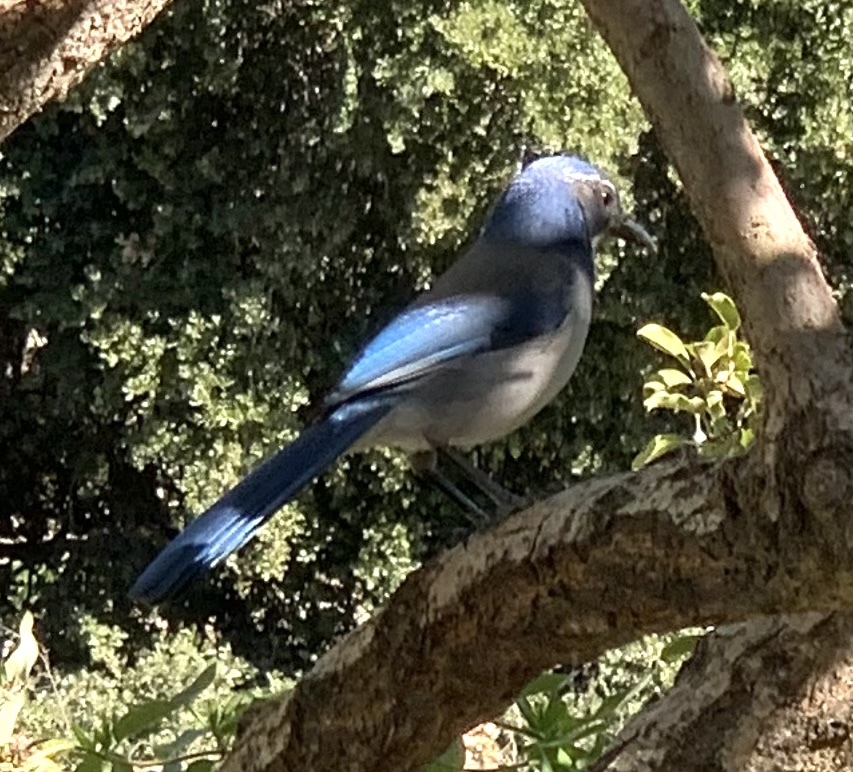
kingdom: Animalia
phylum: Chordata
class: Aves
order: Passeriformes
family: Corvidae
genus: Aphelocoma
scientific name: Aphelocoma californica
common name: California scrub-jay
